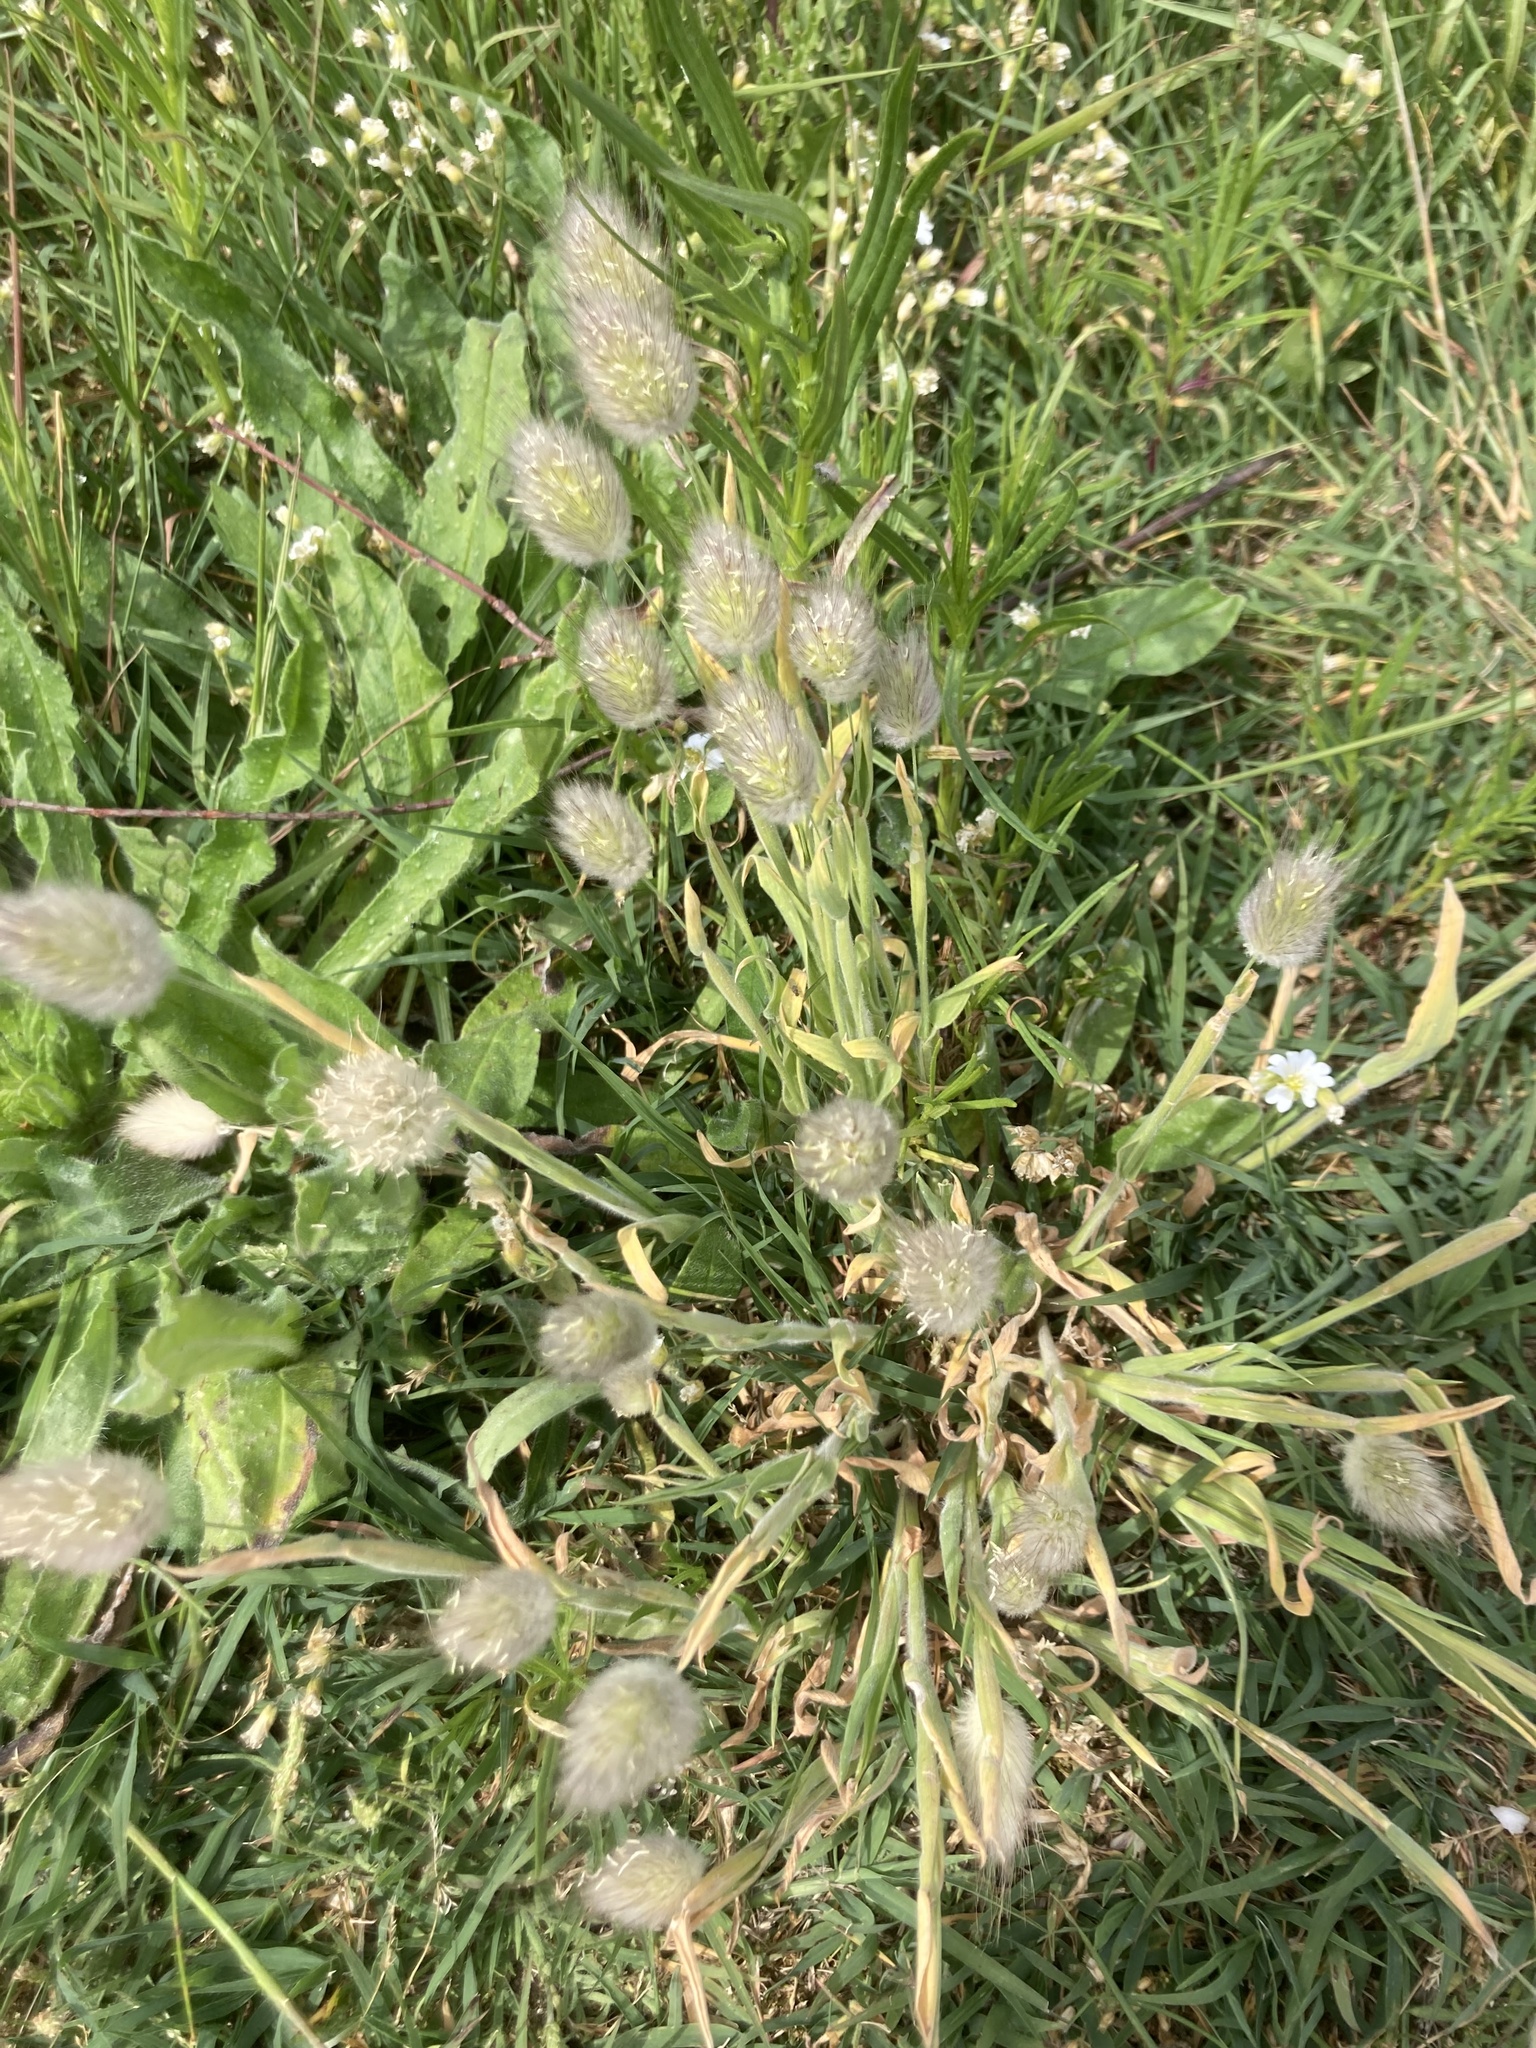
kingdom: Plantae
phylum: Tracheophyta
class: Liliopsida
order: Poales
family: Poaceae
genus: Lagurus
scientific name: Lagurus ovatus
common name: Hare's-tail
